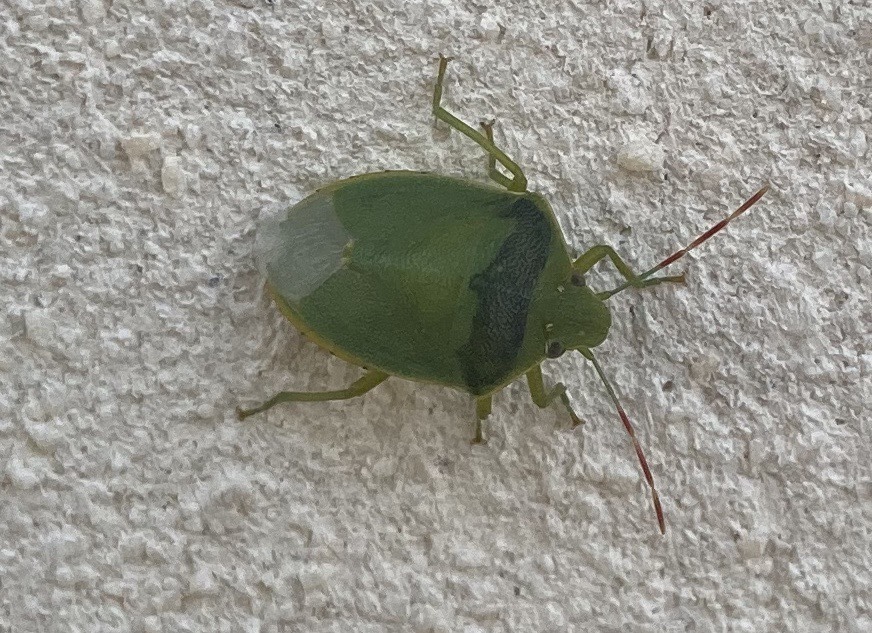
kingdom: Animalia
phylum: Arthropoda
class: Insecta
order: Hemiptera
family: Pentatomidae
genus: Acrosternum
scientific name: Acrosternum heegeri
